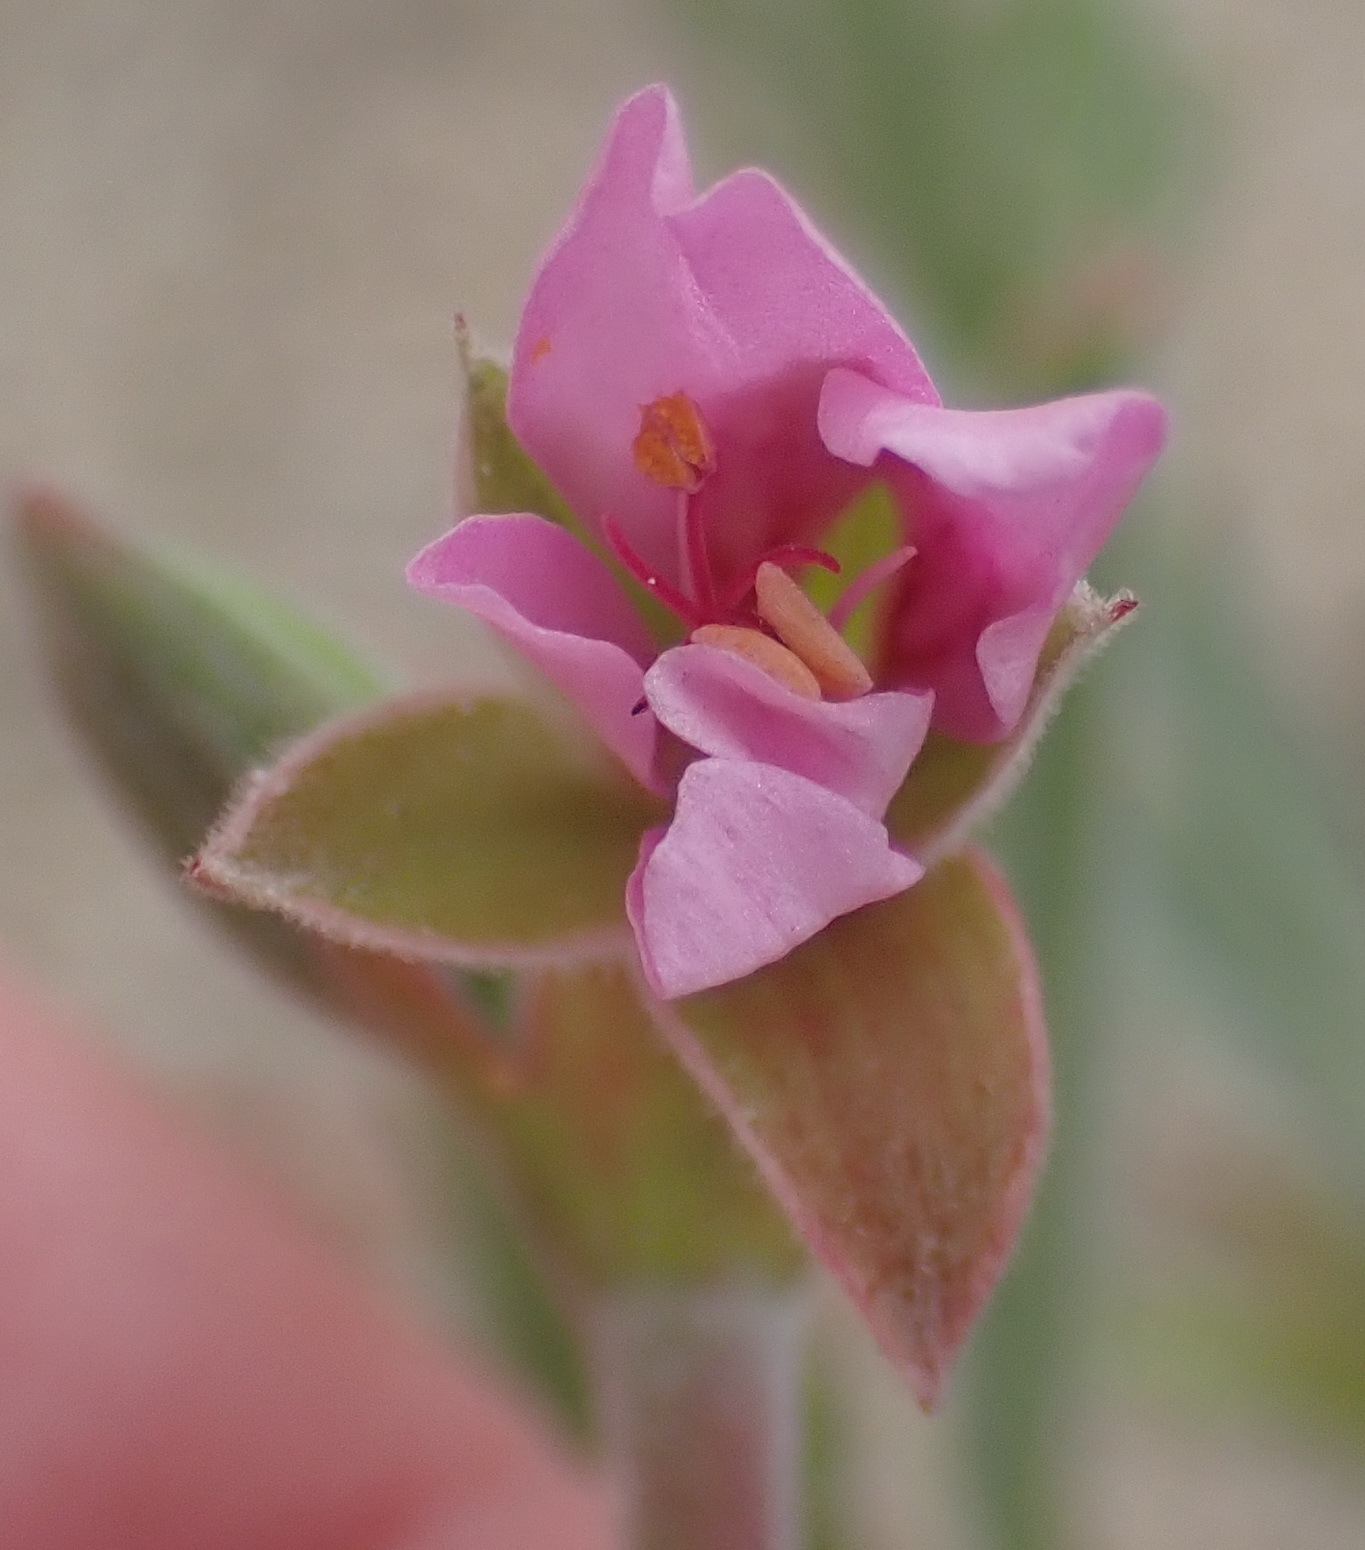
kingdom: Plantae
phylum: Tracheophyta
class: Magnoliopsida
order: Geraniales
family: Geraniaceae
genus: Pelargonium
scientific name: Pelargonium oenothera
